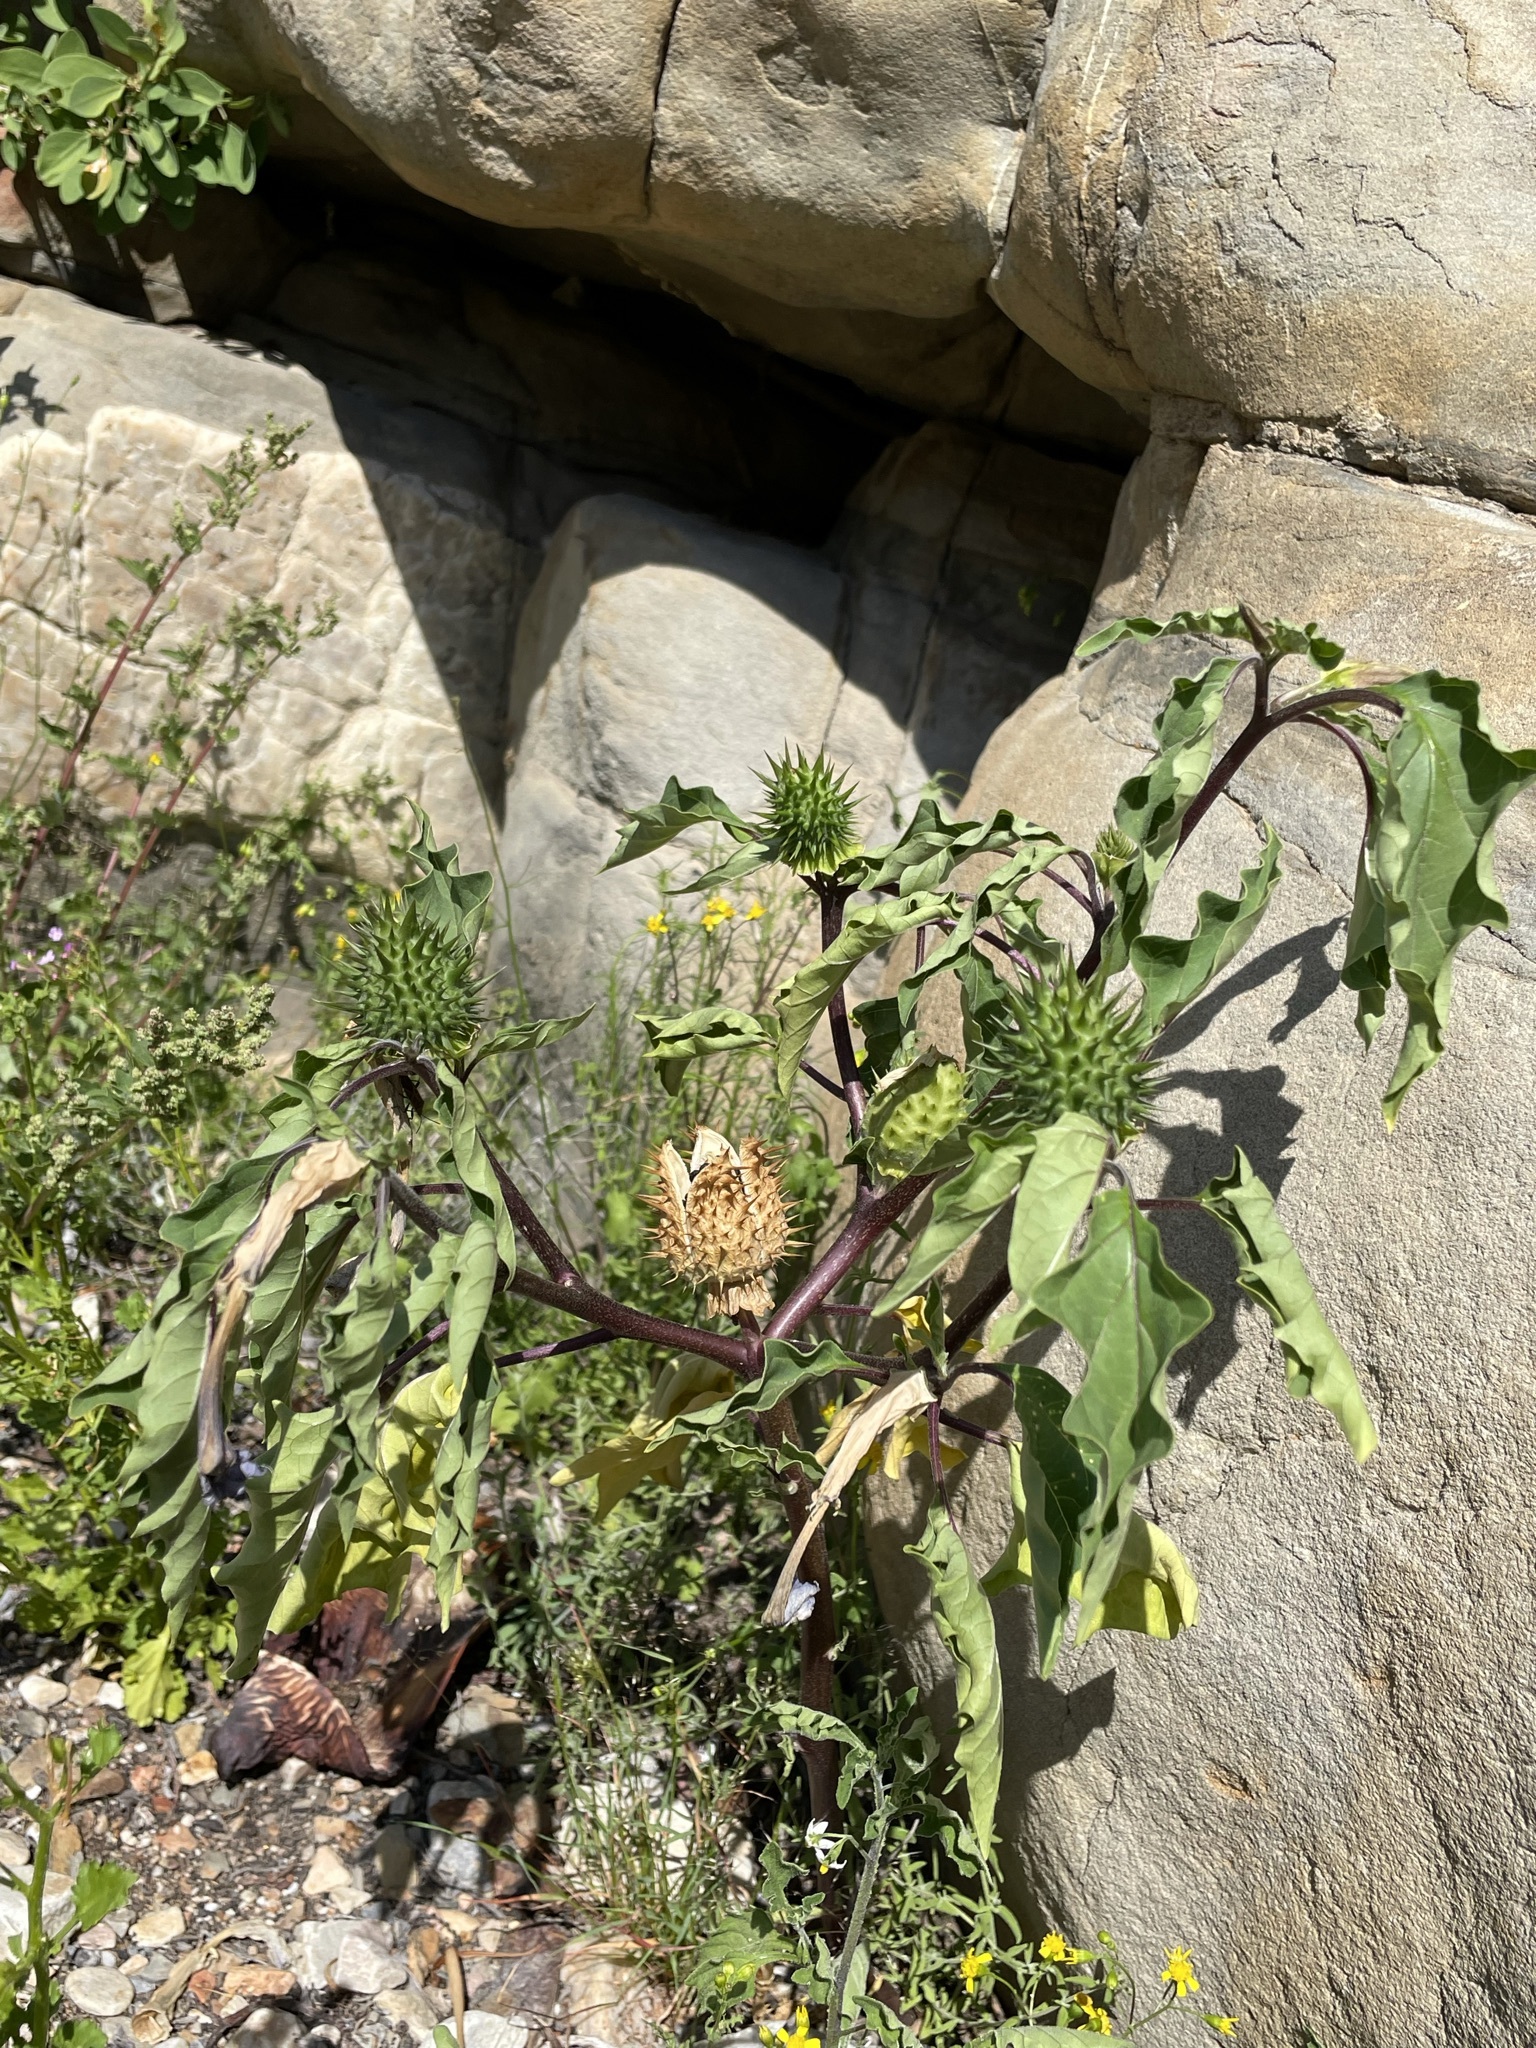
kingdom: Plantae
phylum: Tracheophyta
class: Magnoliopsida
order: Solanales
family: Solanaceae
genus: Datura
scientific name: Datura stramonium
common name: Thorn-apple
